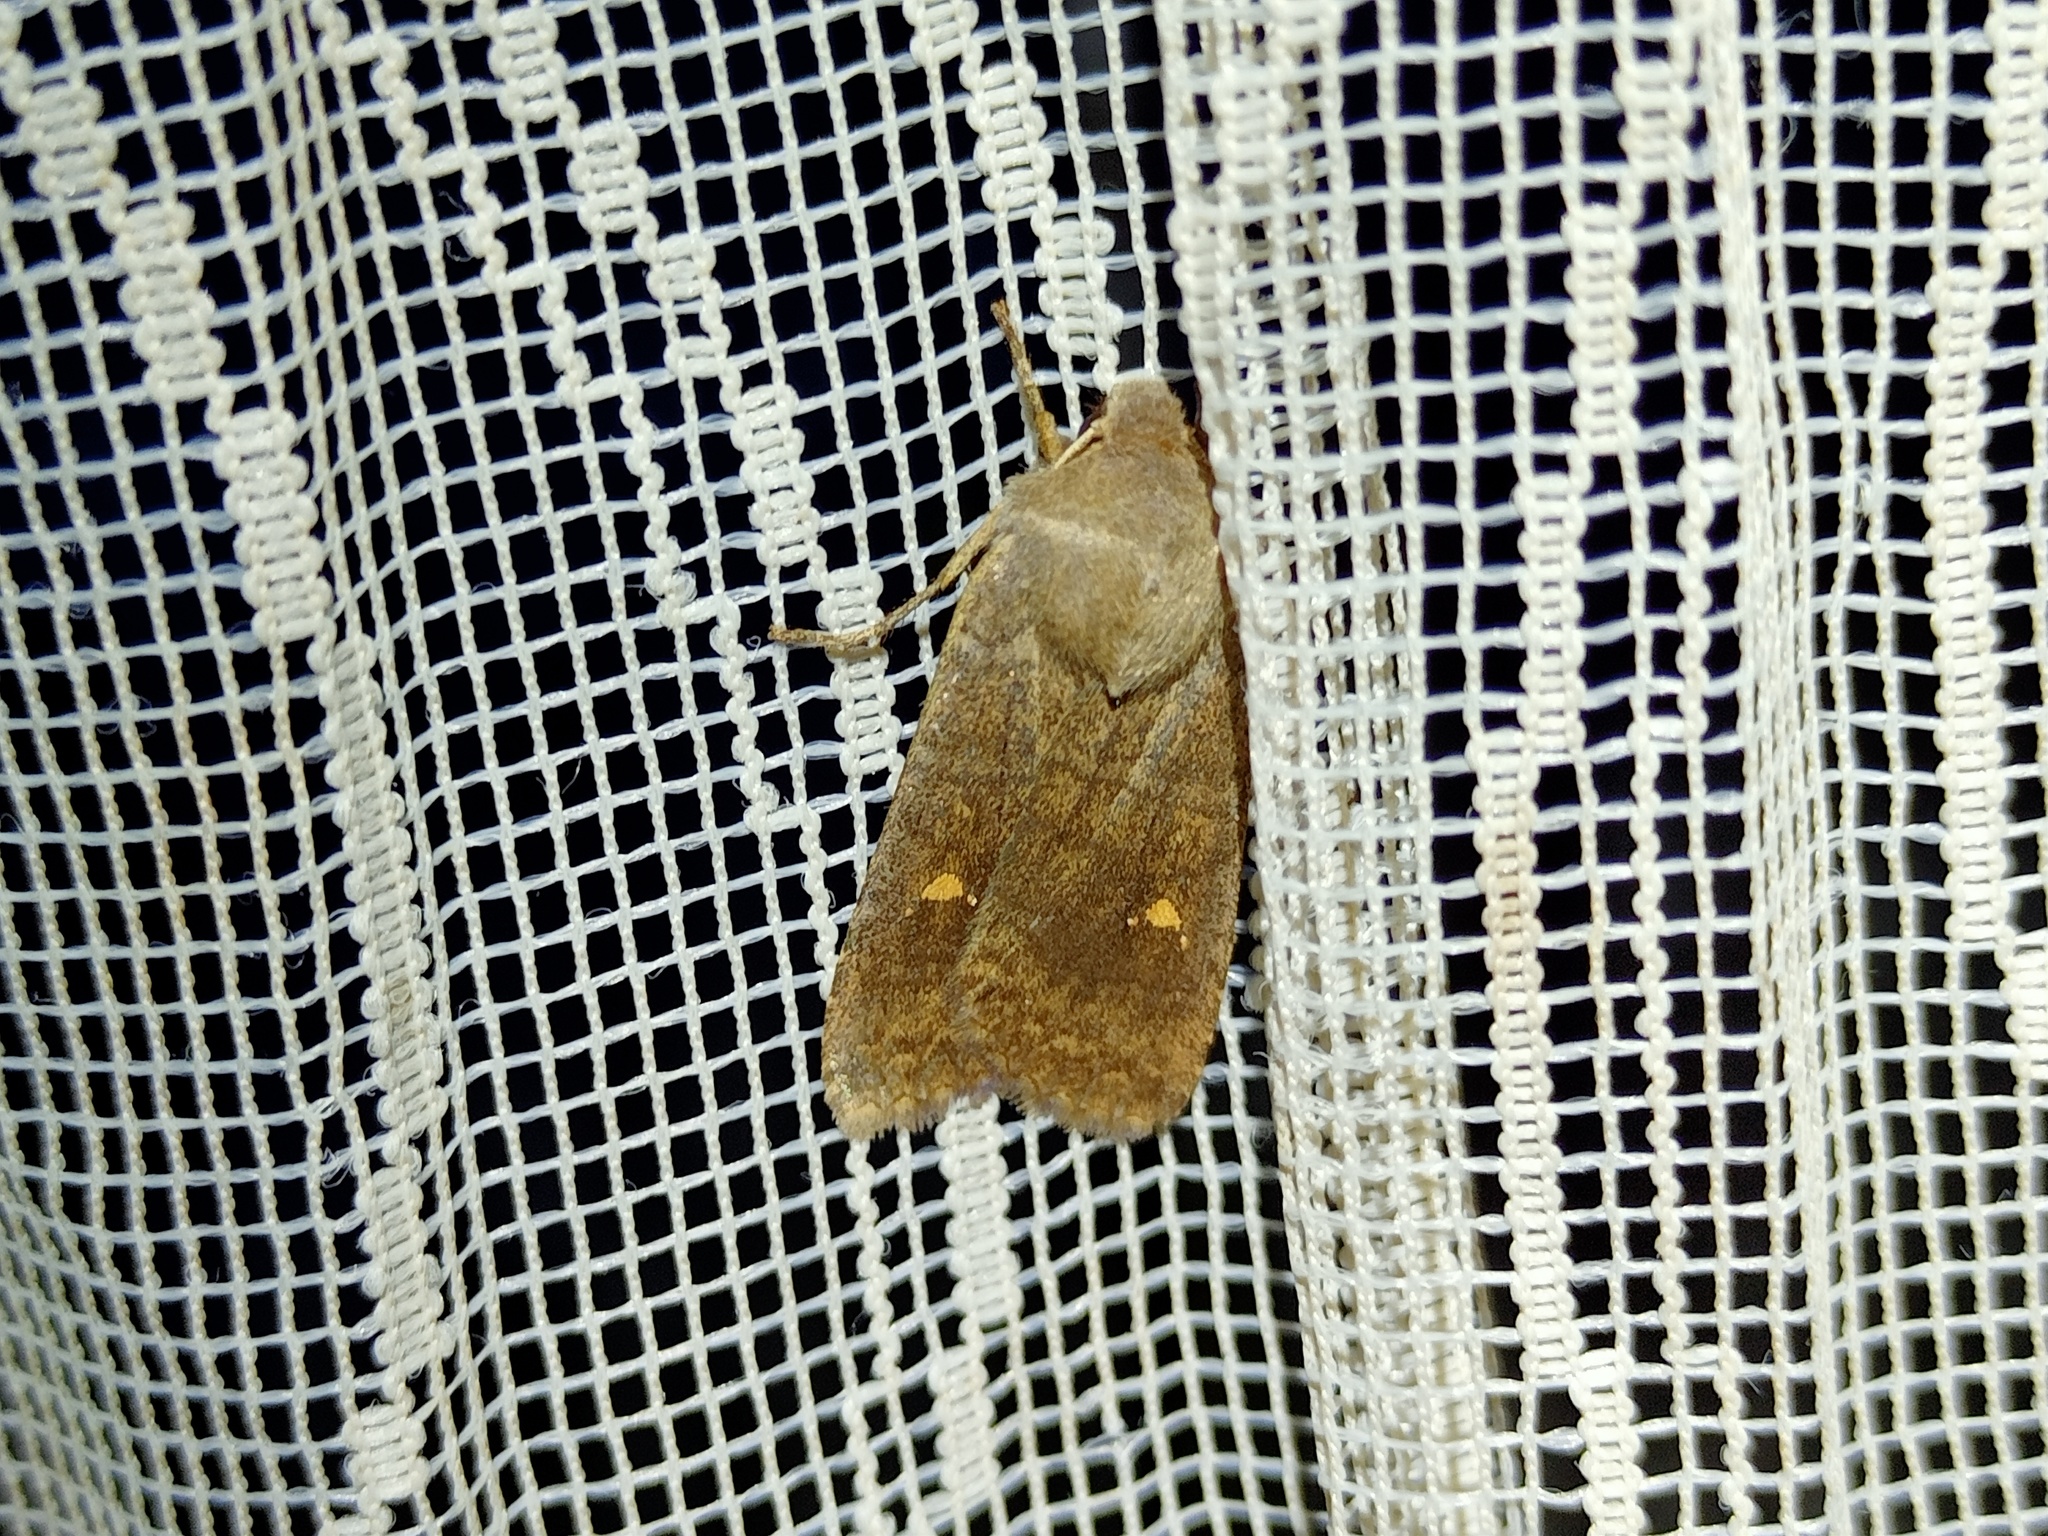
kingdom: Animalia
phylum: Arthropoda
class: Insecta
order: Lepidoptera
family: Noctuidae
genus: Eupsilia
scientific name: Eupsilia transversa
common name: Satellite
